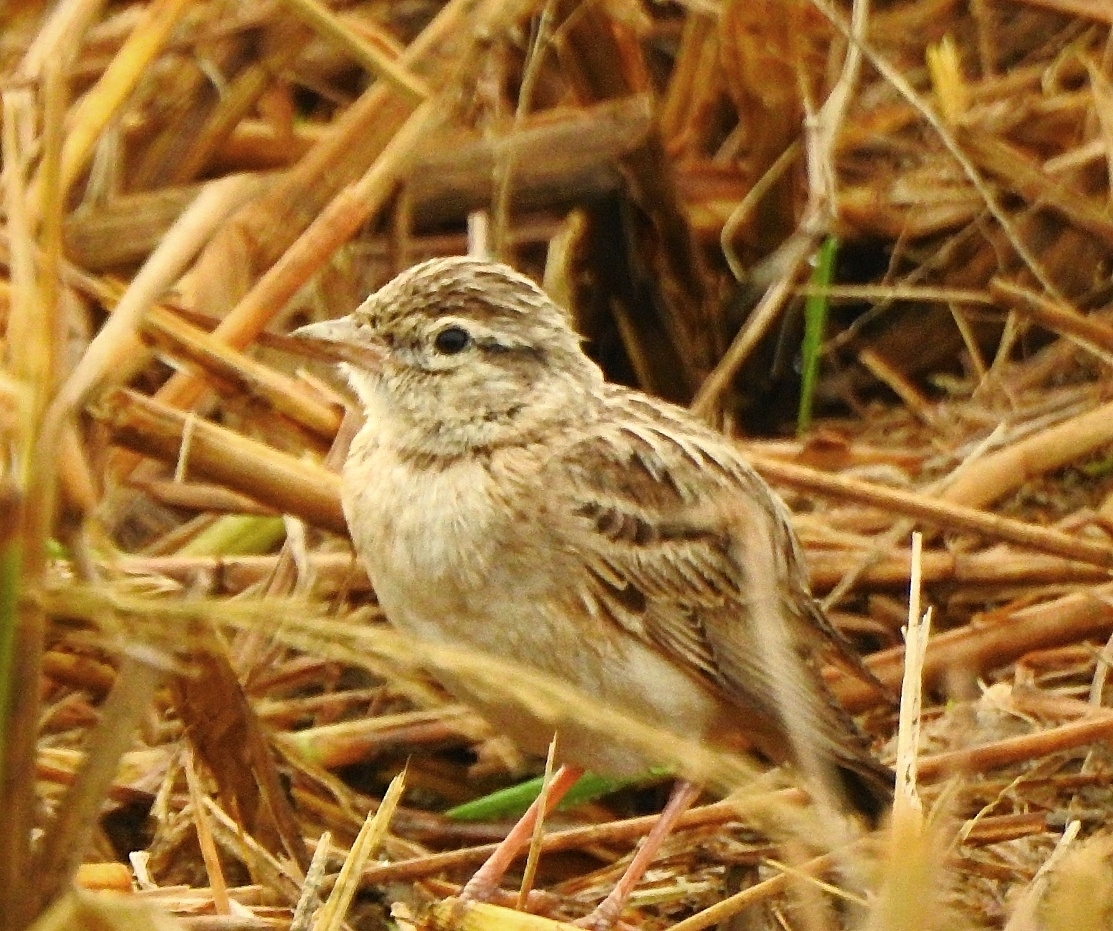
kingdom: Animalia
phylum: Chordata
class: Aves
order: Passeriformes
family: Alaudidae
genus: Calandrella
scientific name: Calandrella brachydactyla
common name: Greater short-toed lark
